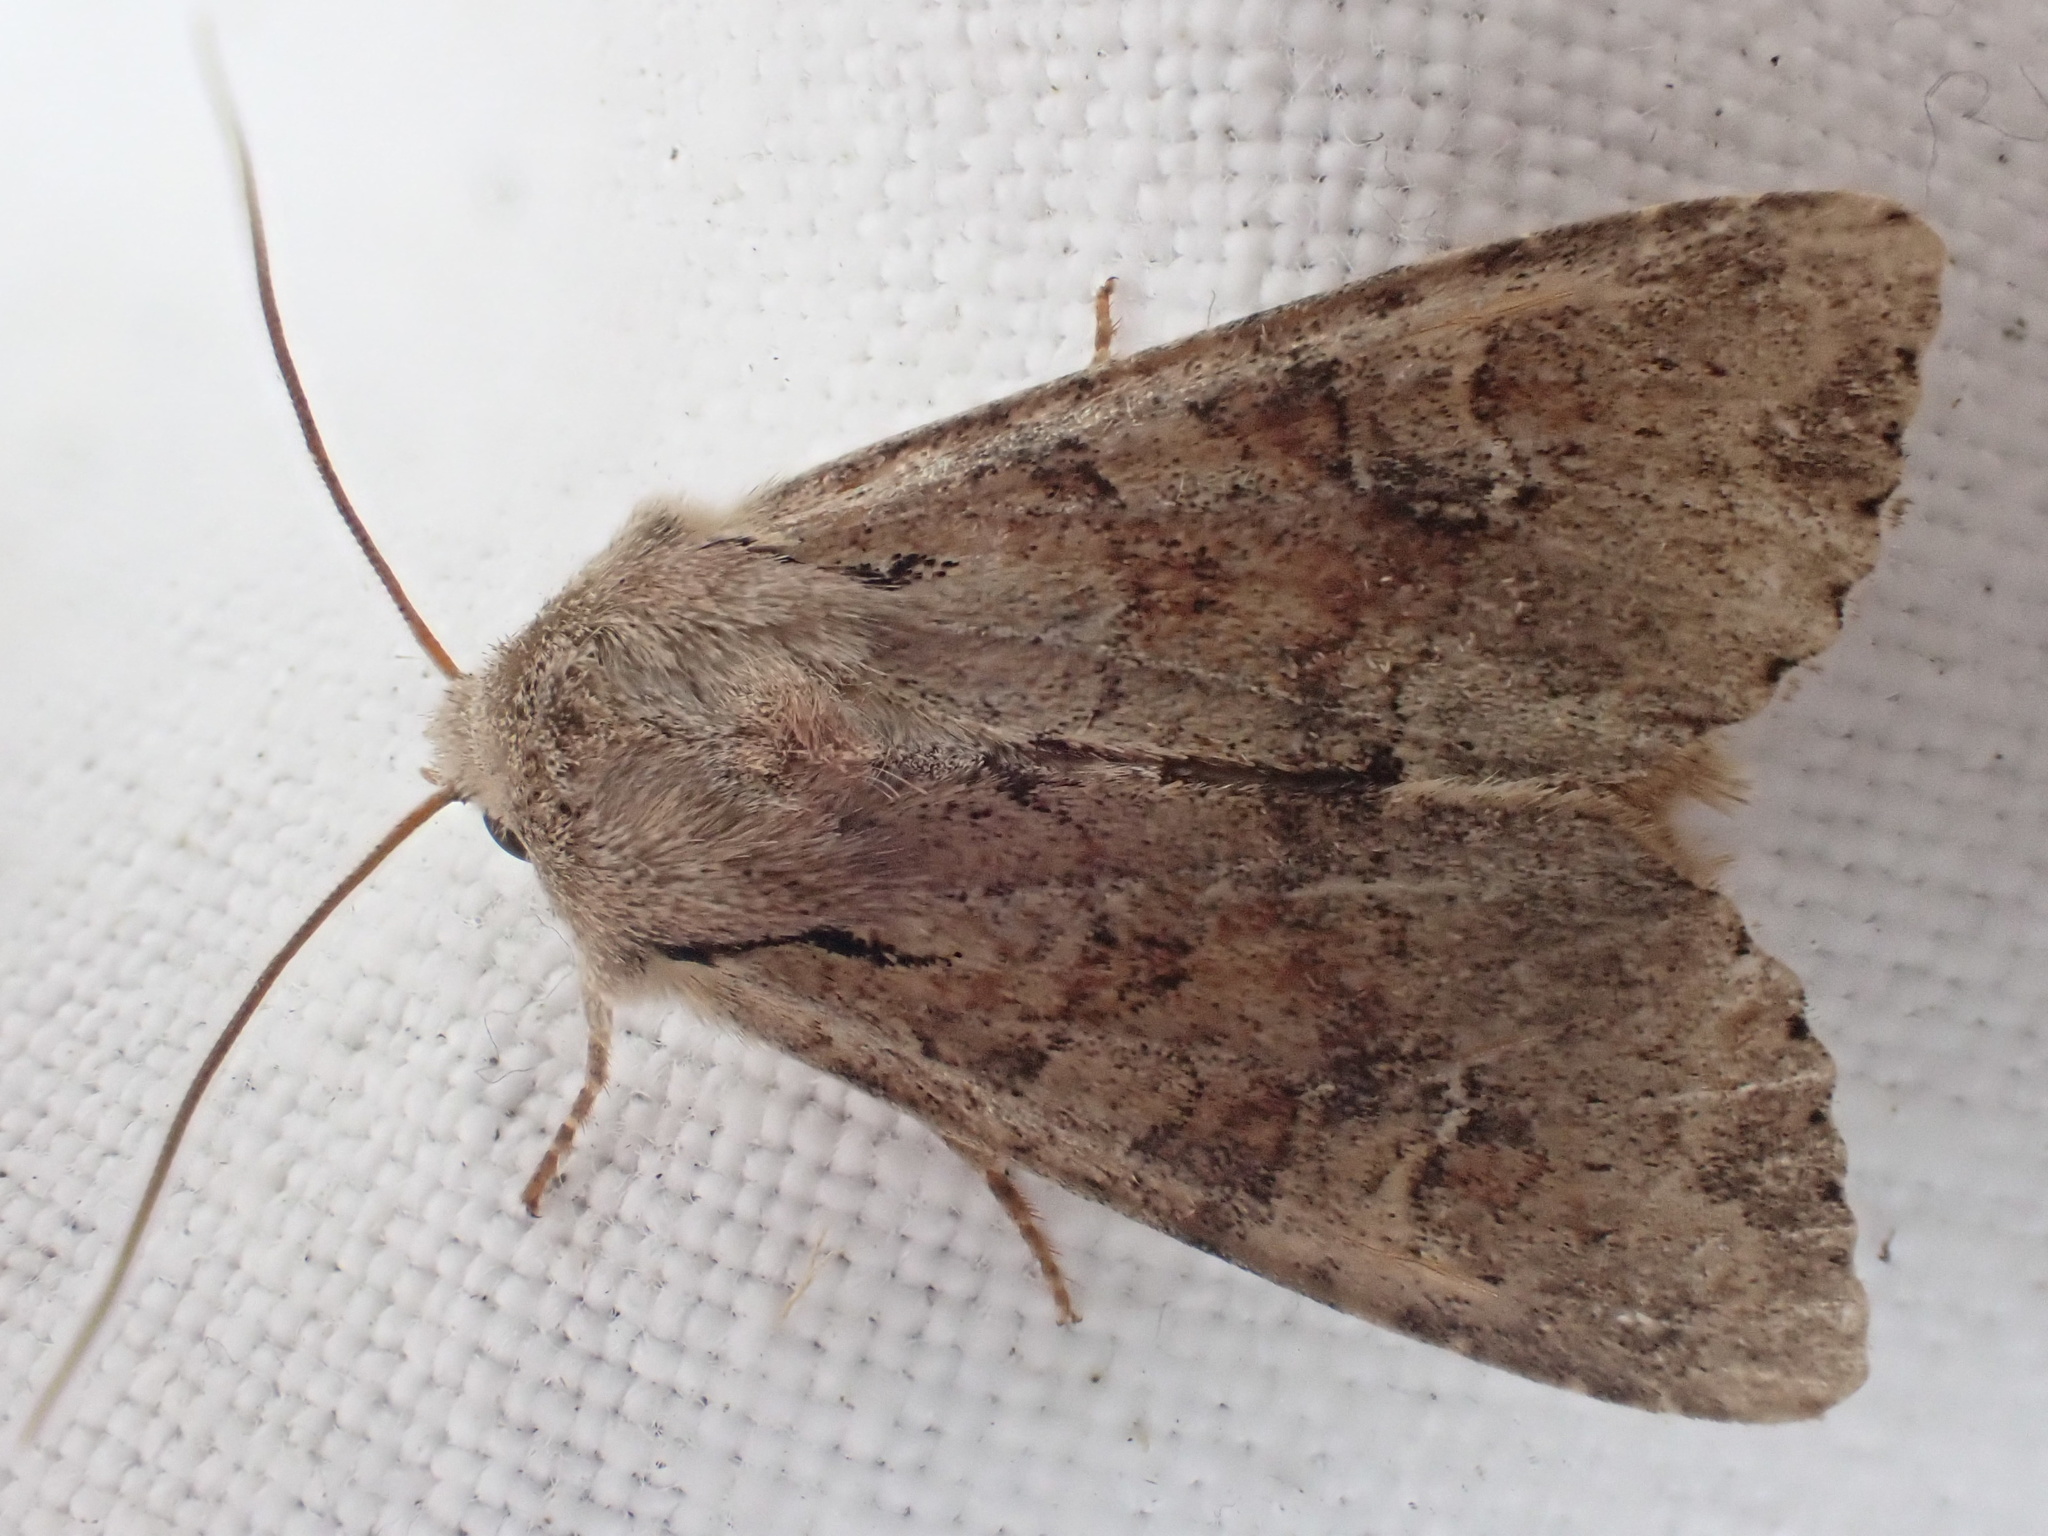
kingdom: Animalia
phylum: Arthropoda
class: Insecta
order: Lepidoptera
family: Noctuidae
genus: Apamea
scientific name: Apamea sordens
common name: Rustic shoulder-knot
